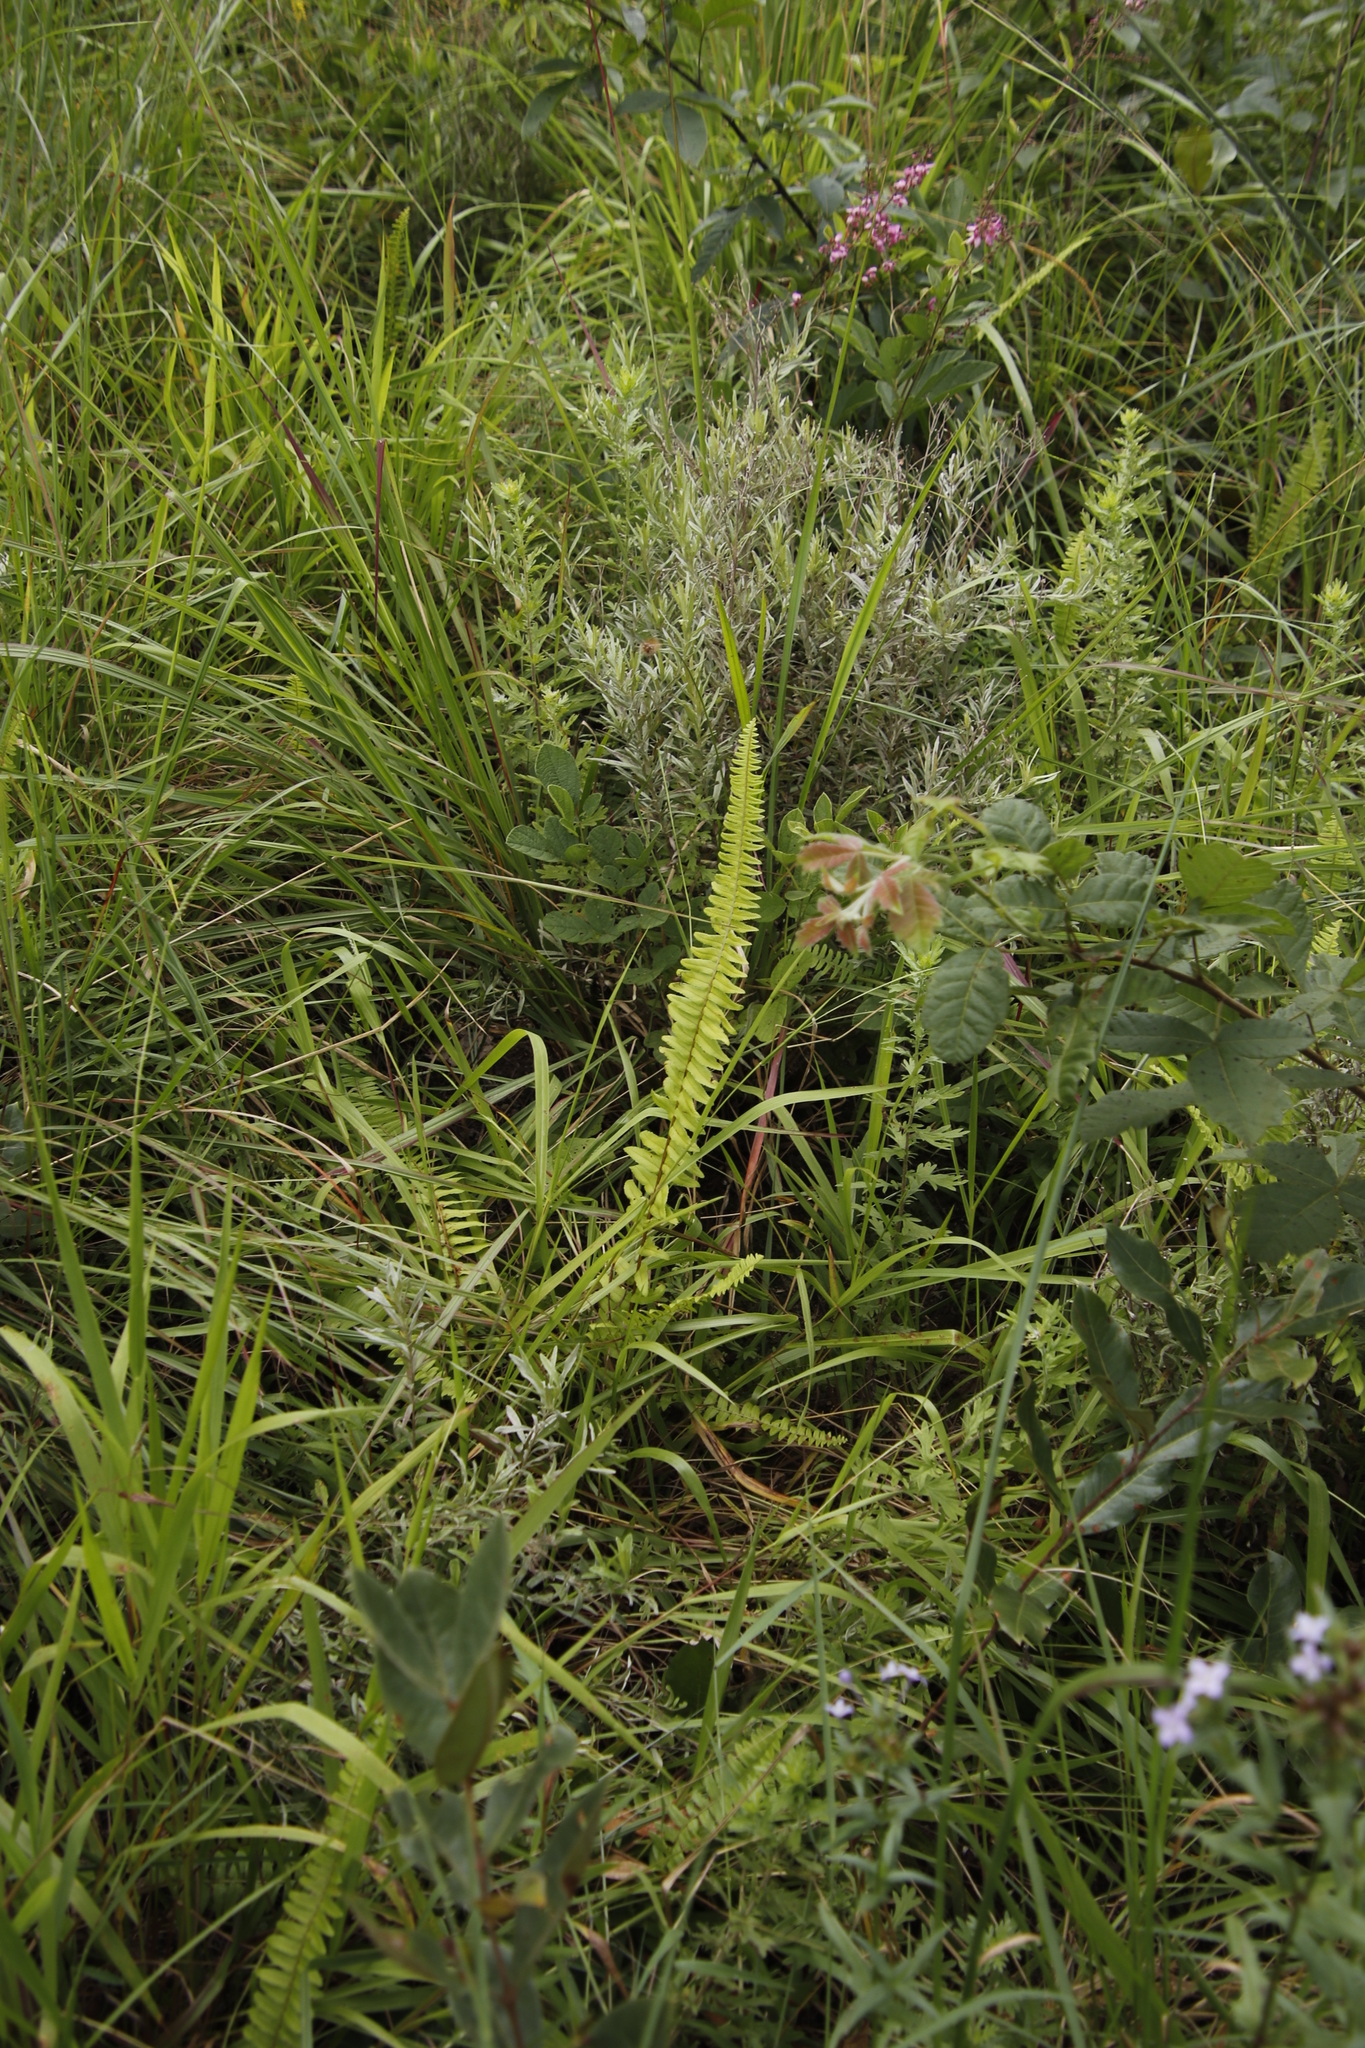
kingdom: Plantae
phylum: Tracheophyta
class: Polypodiopsida
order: Polypodiales
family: Nephrolepidaceae
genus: Nephrolepis
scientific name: Nephrolepis undulata
